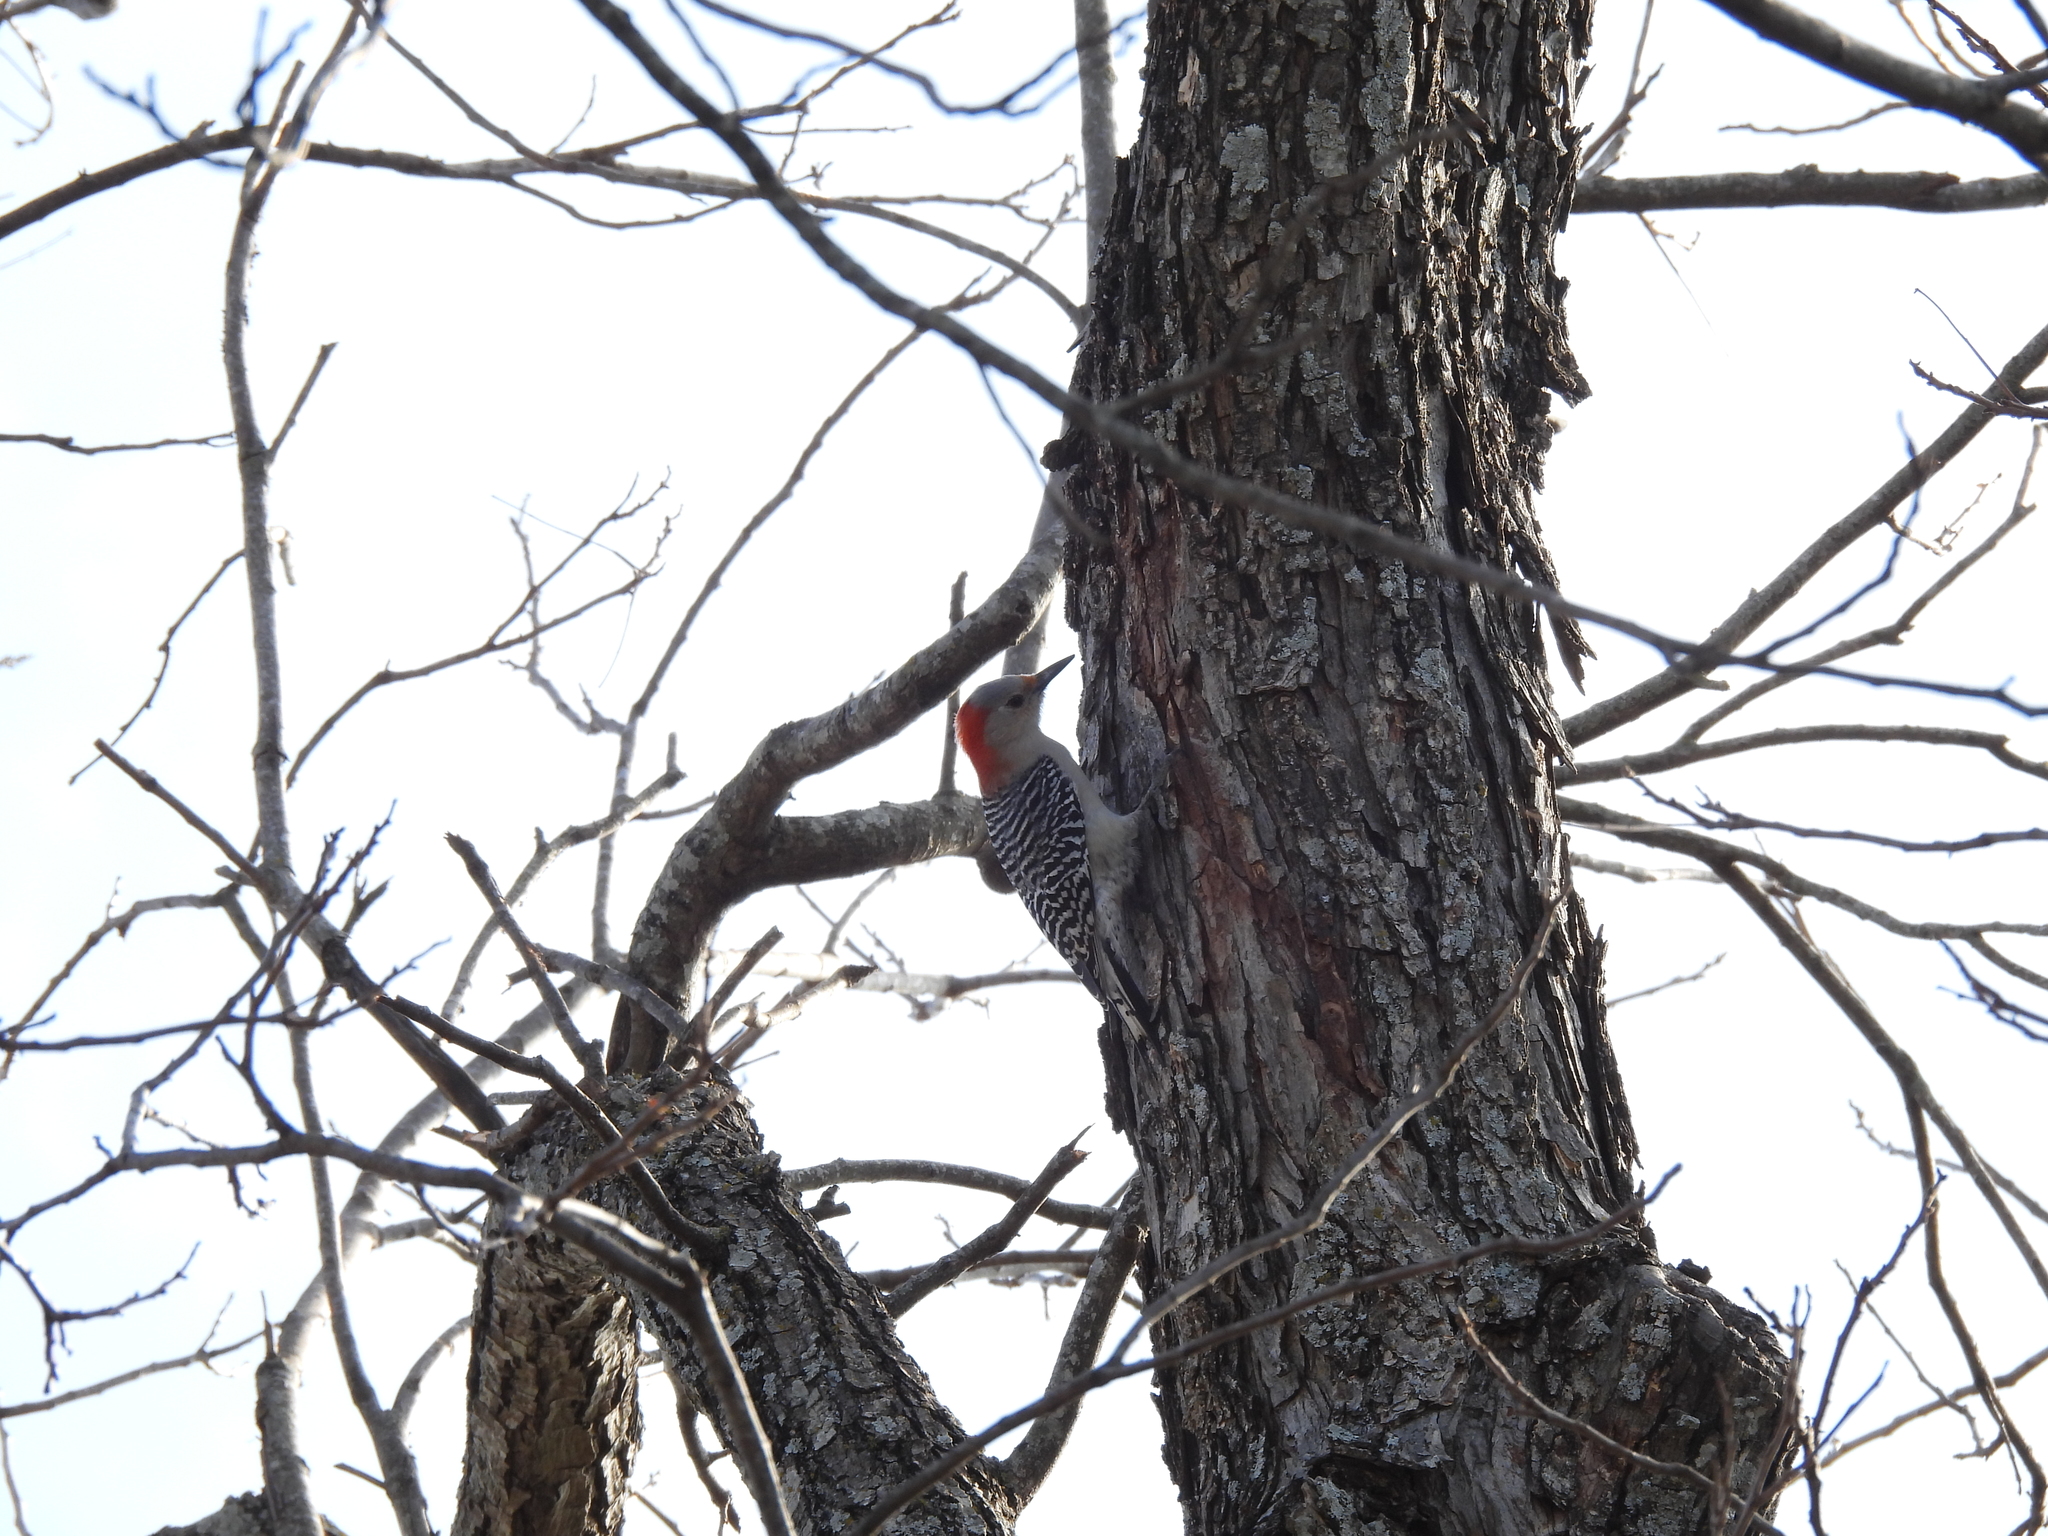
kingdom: Animalia
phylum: Chordata
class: Aves
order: Piciformes
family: Picidae
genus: Melanerpes
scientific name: Melanerpes carolinus
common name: Red-bellied woodpecker
